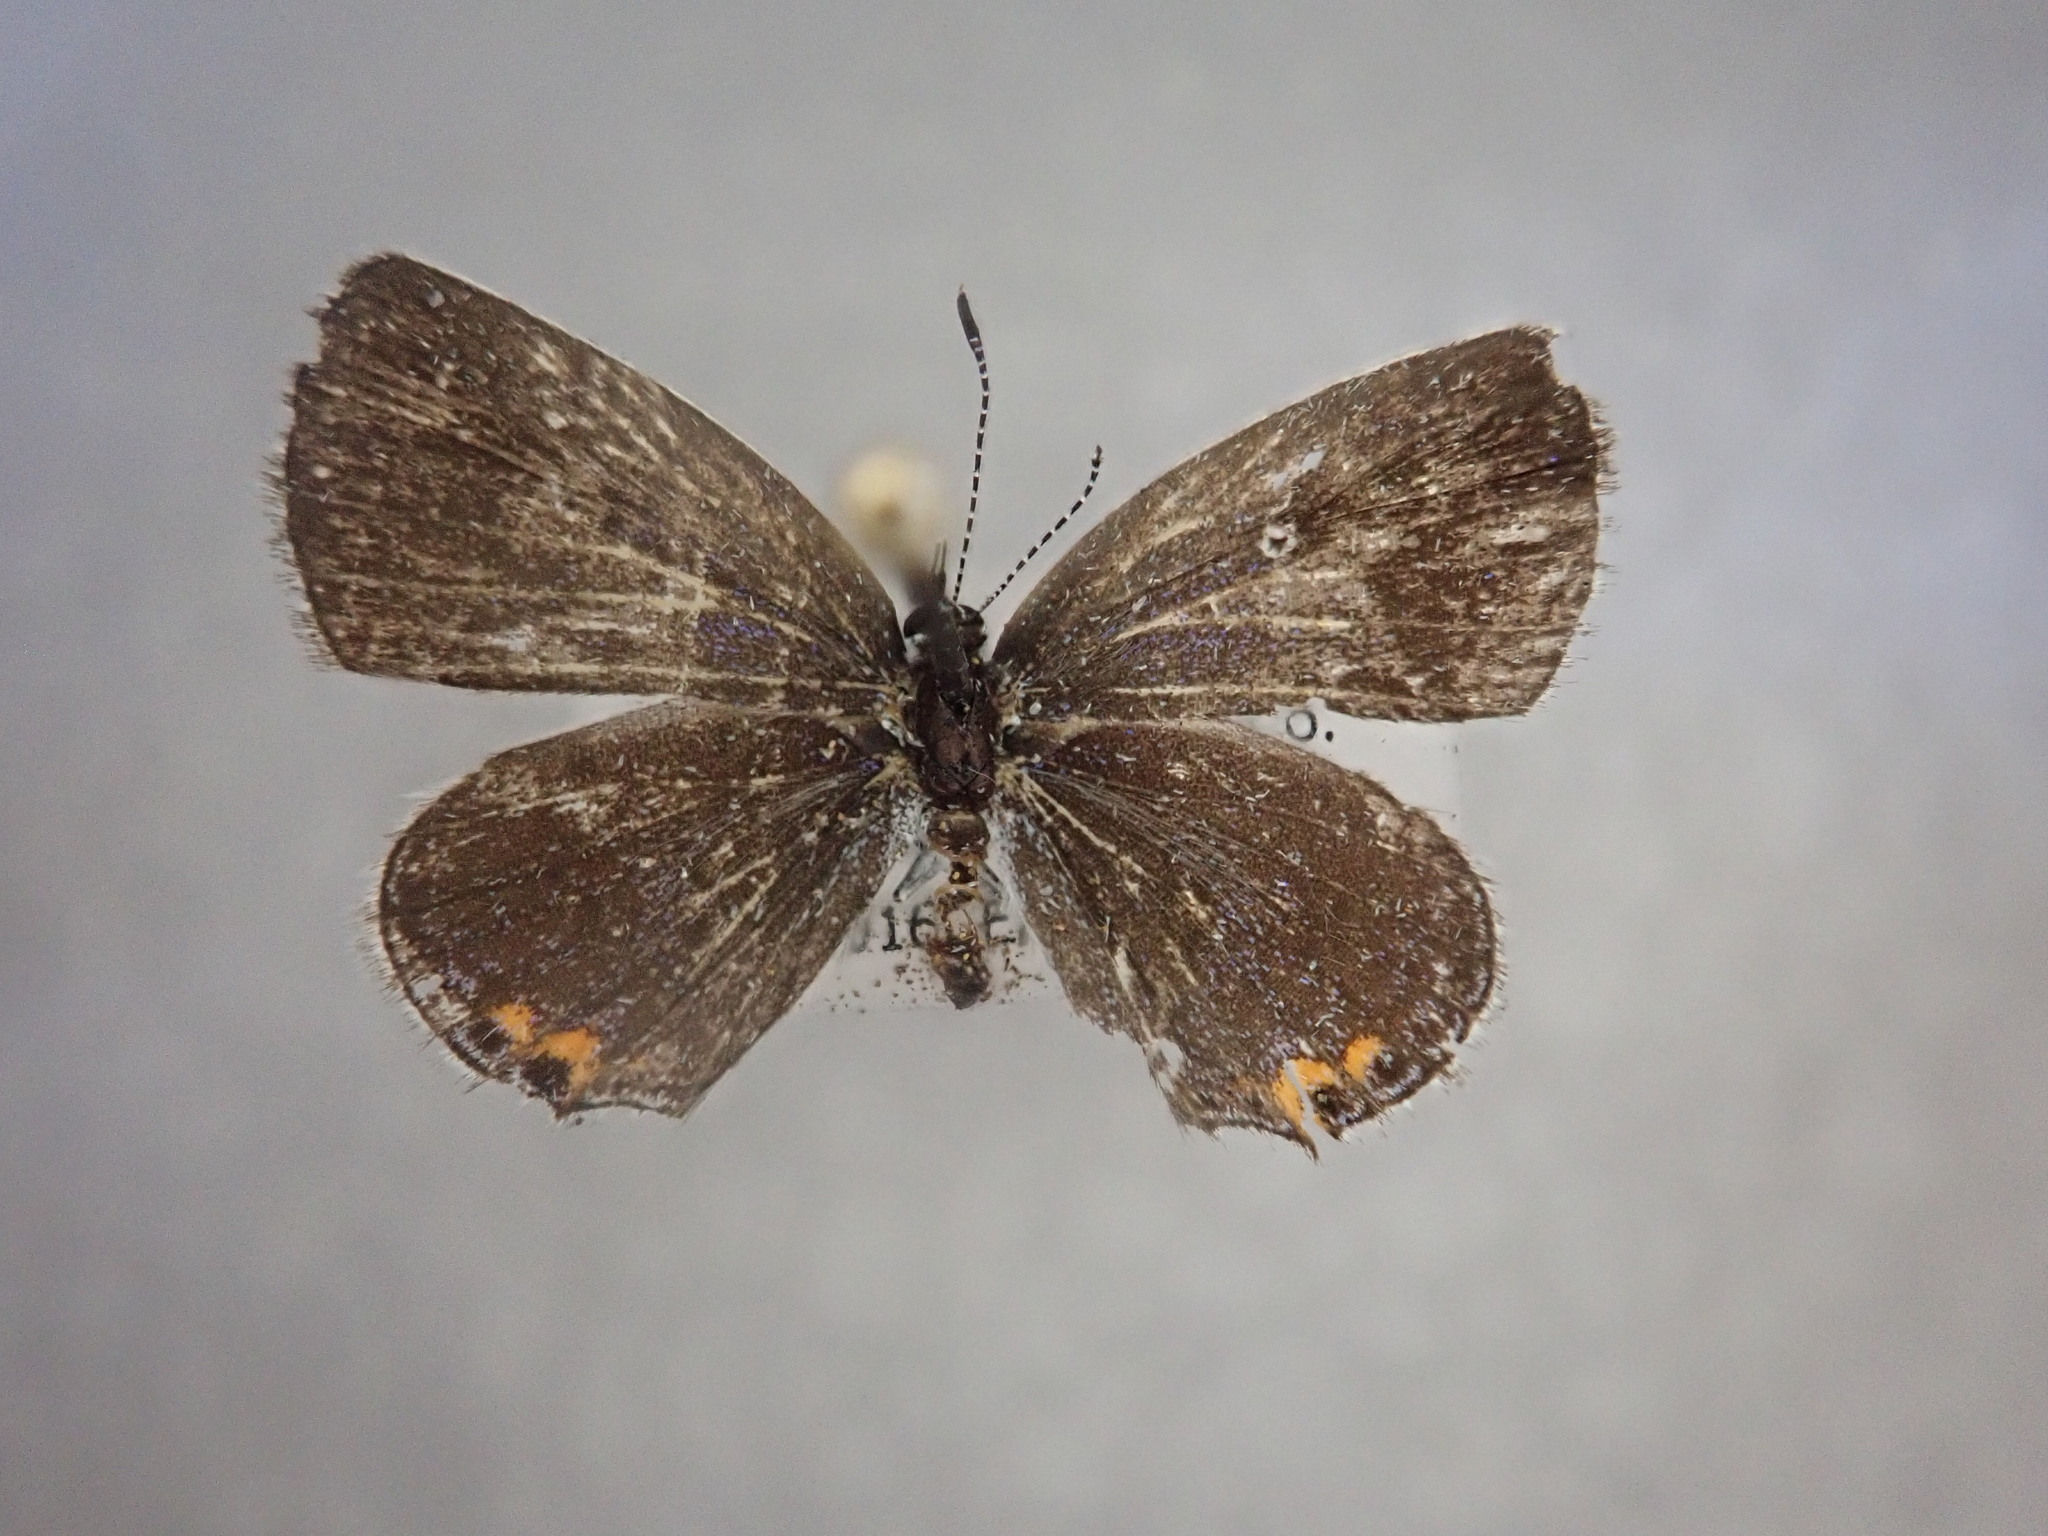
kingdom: Animalia
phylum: Arthropoda
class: Insecta
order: Lepidoptera
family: Lycaenidae
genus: Elkalyce
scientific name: Elkalyce comyntas
